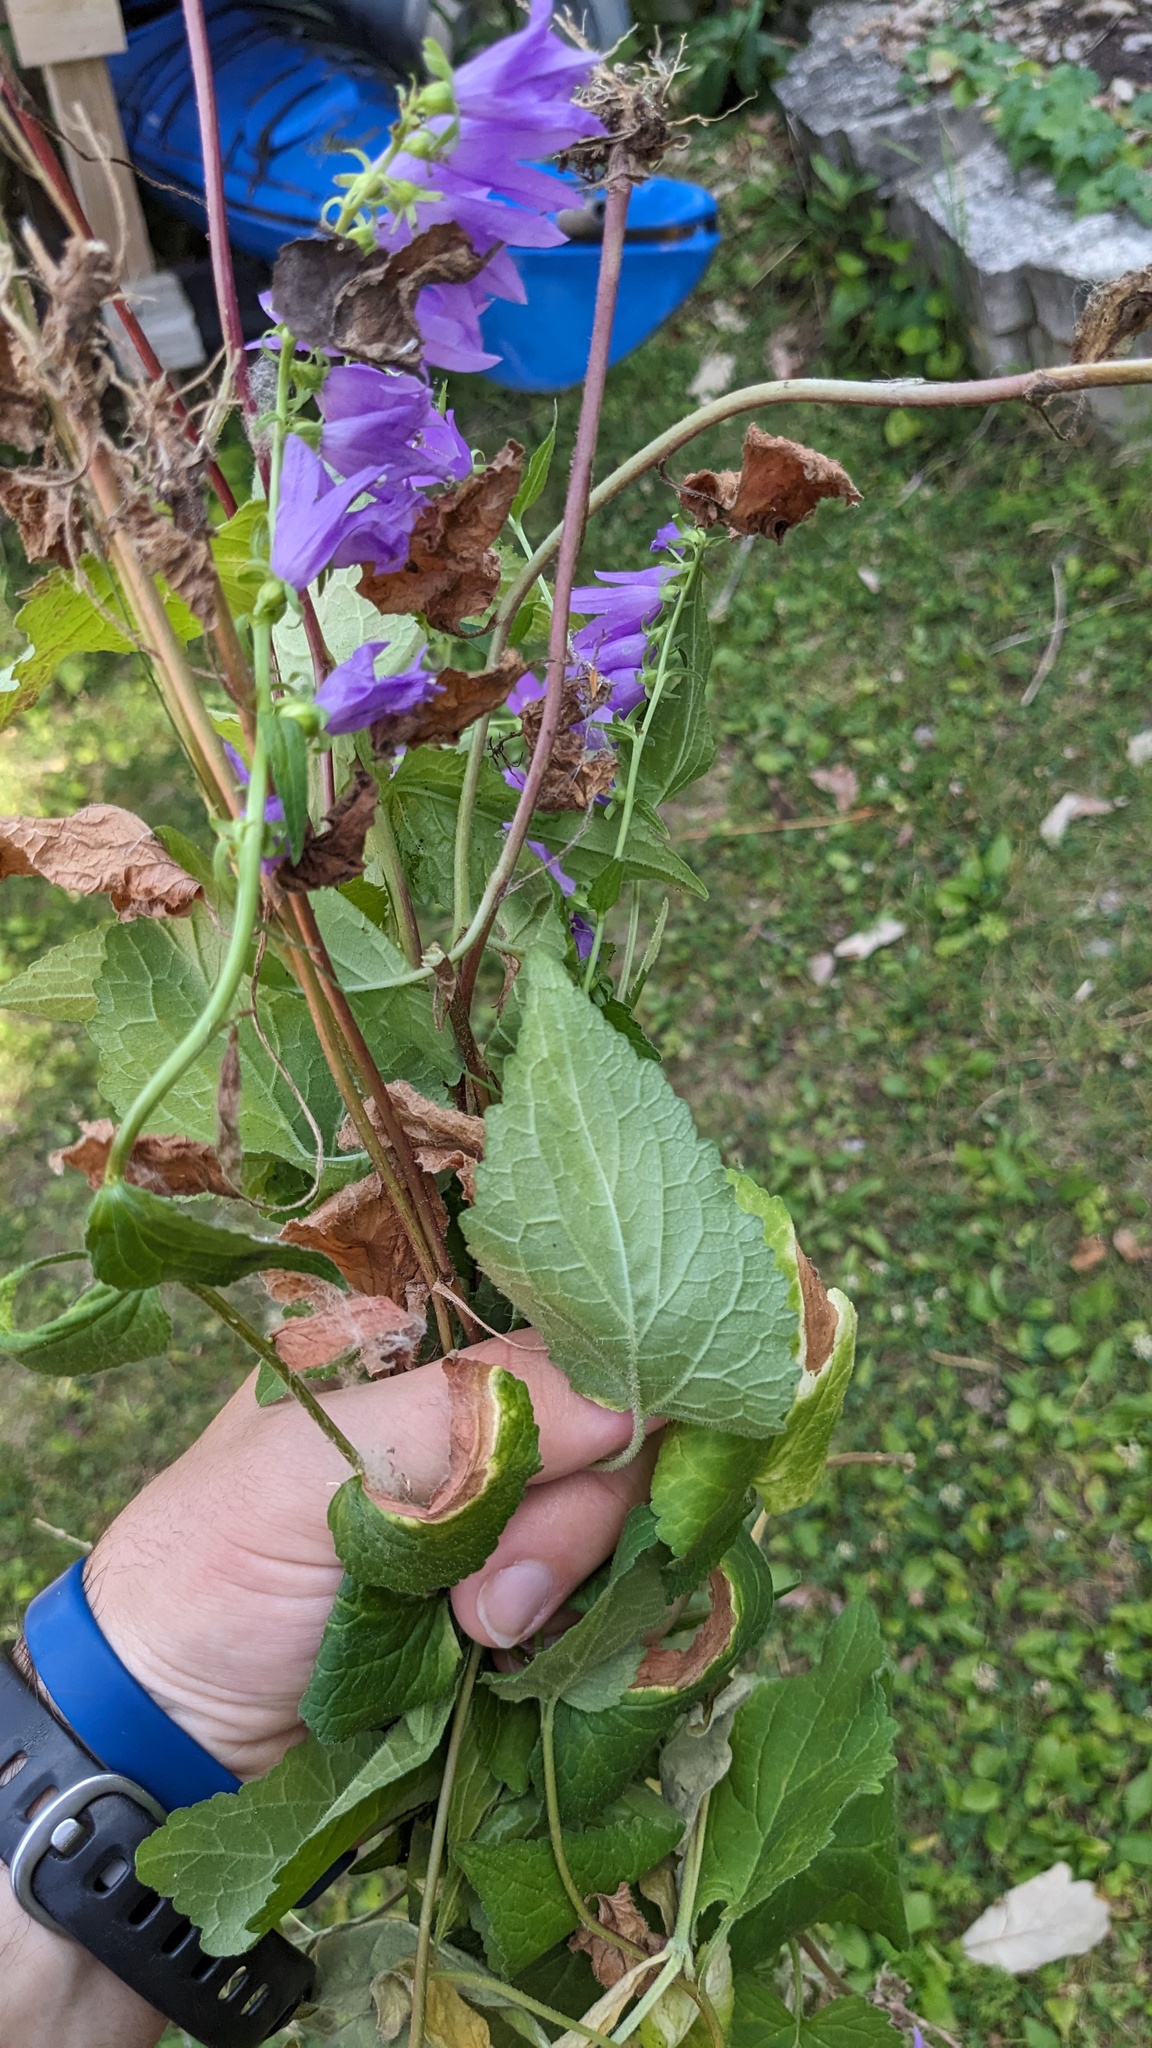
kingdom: Plantae
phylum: Tracheophyta
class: Magnoliopsida
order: Asterales
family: Campanulaceae
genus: Campanula
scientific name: Campanula rapunculoides
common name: Creeping bellflower
